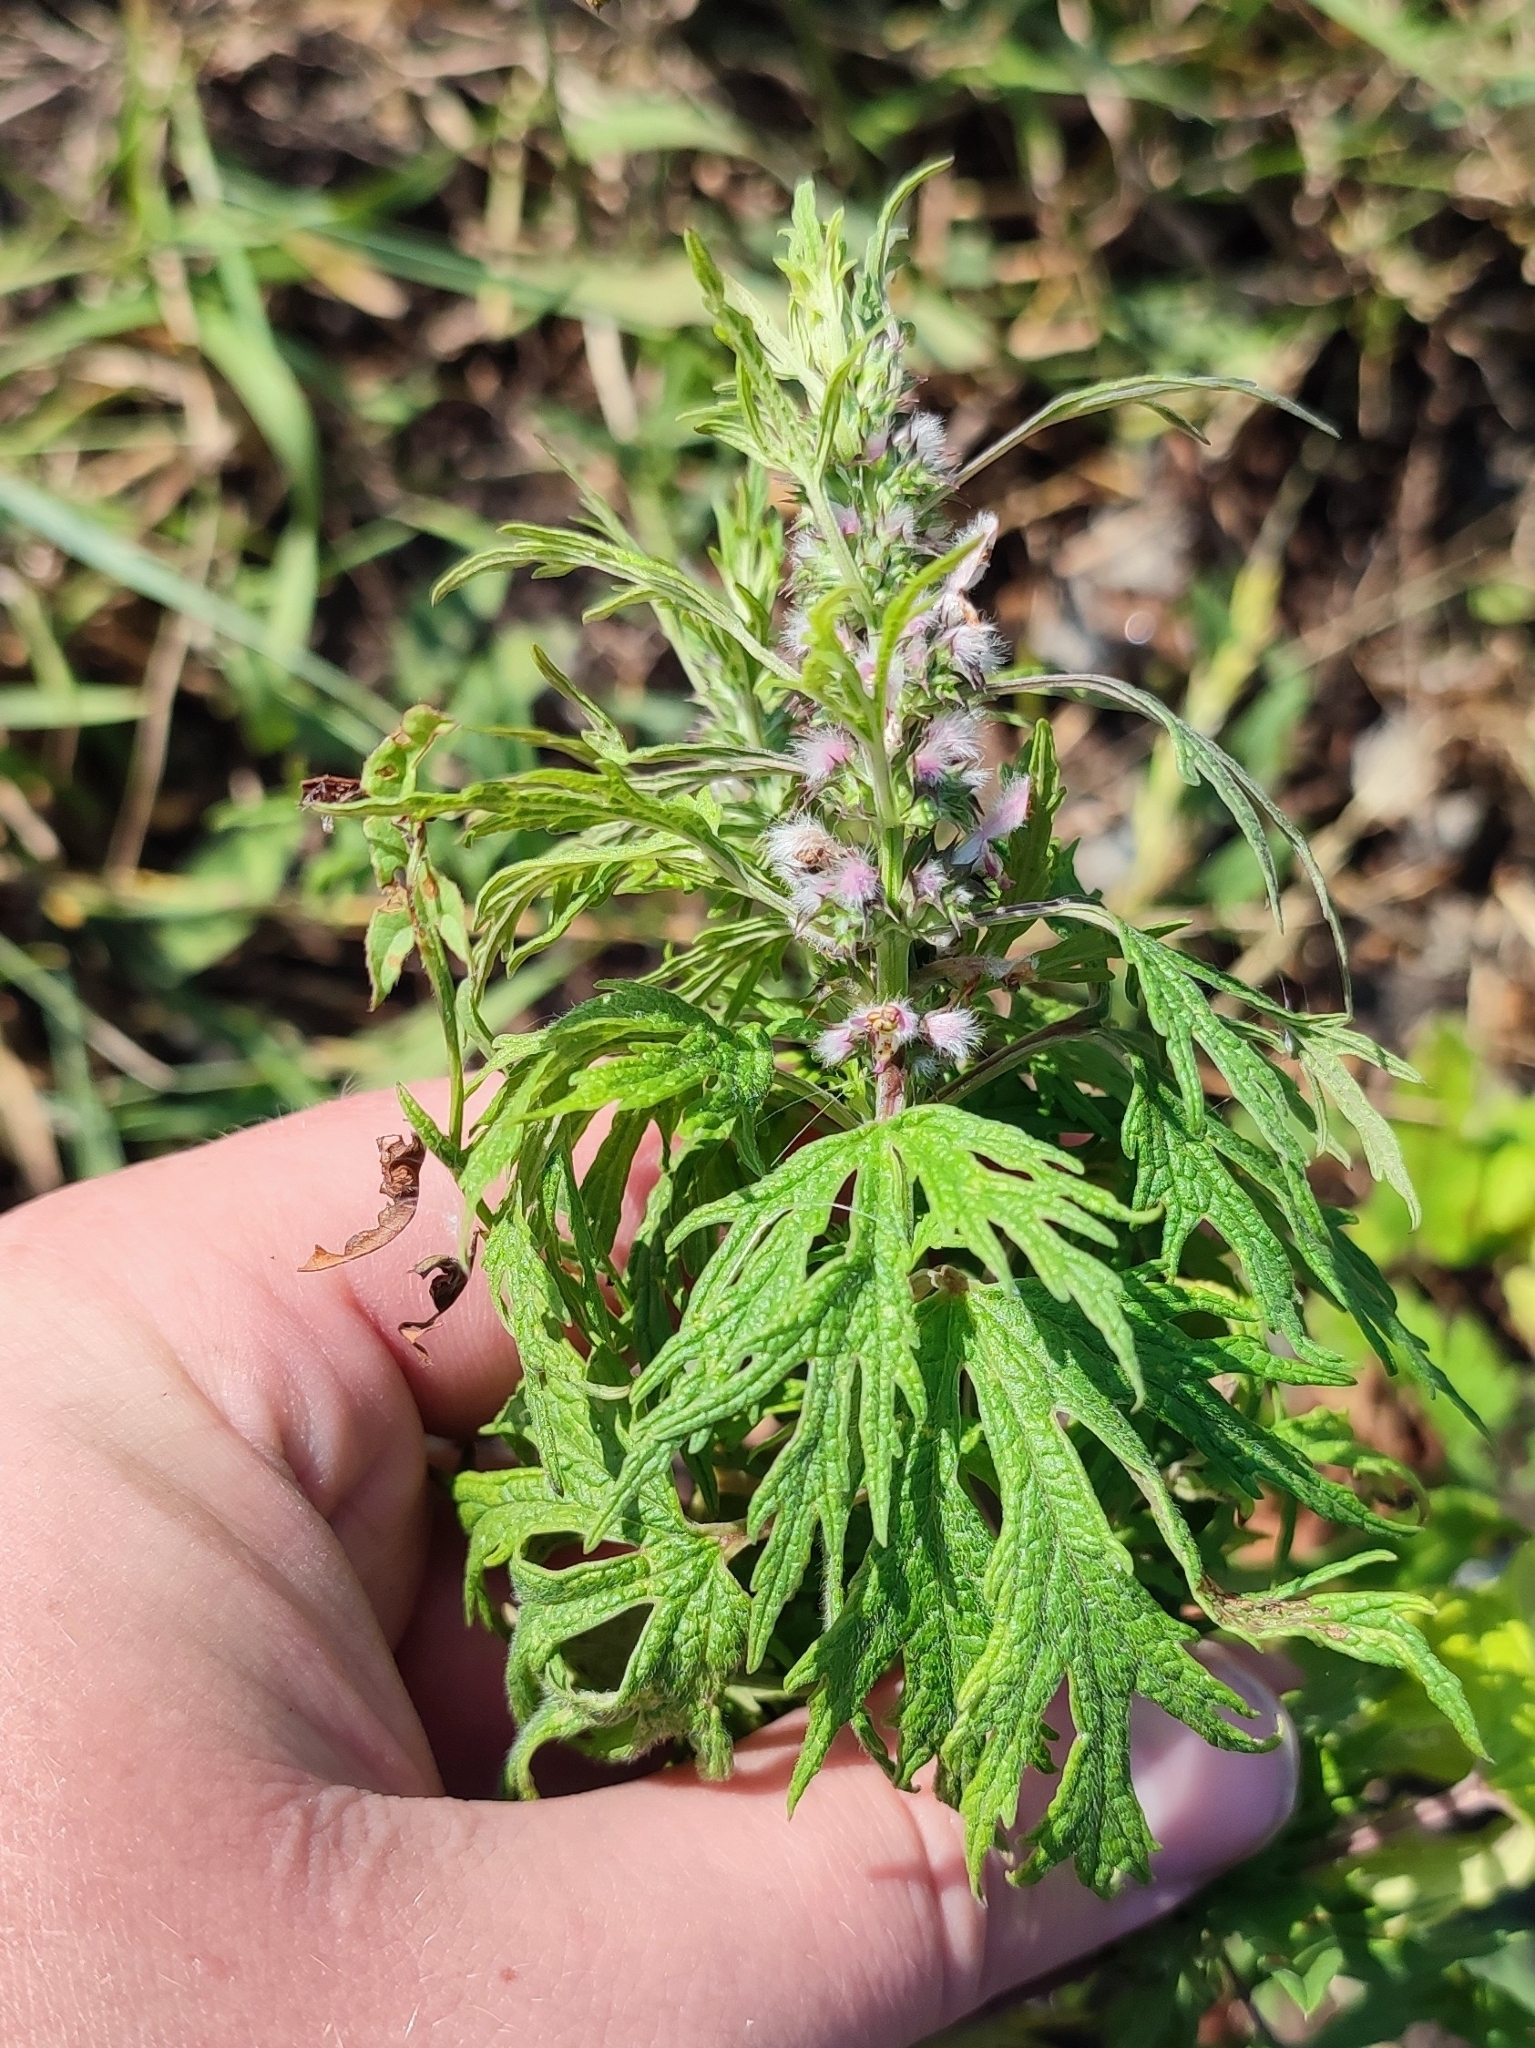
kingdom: Plantae
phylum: Tracheophyta
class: Magnoliopsida
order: Lamiales
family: Lamiaceae
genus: Leonurus
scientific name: Leonurus glaucescens
